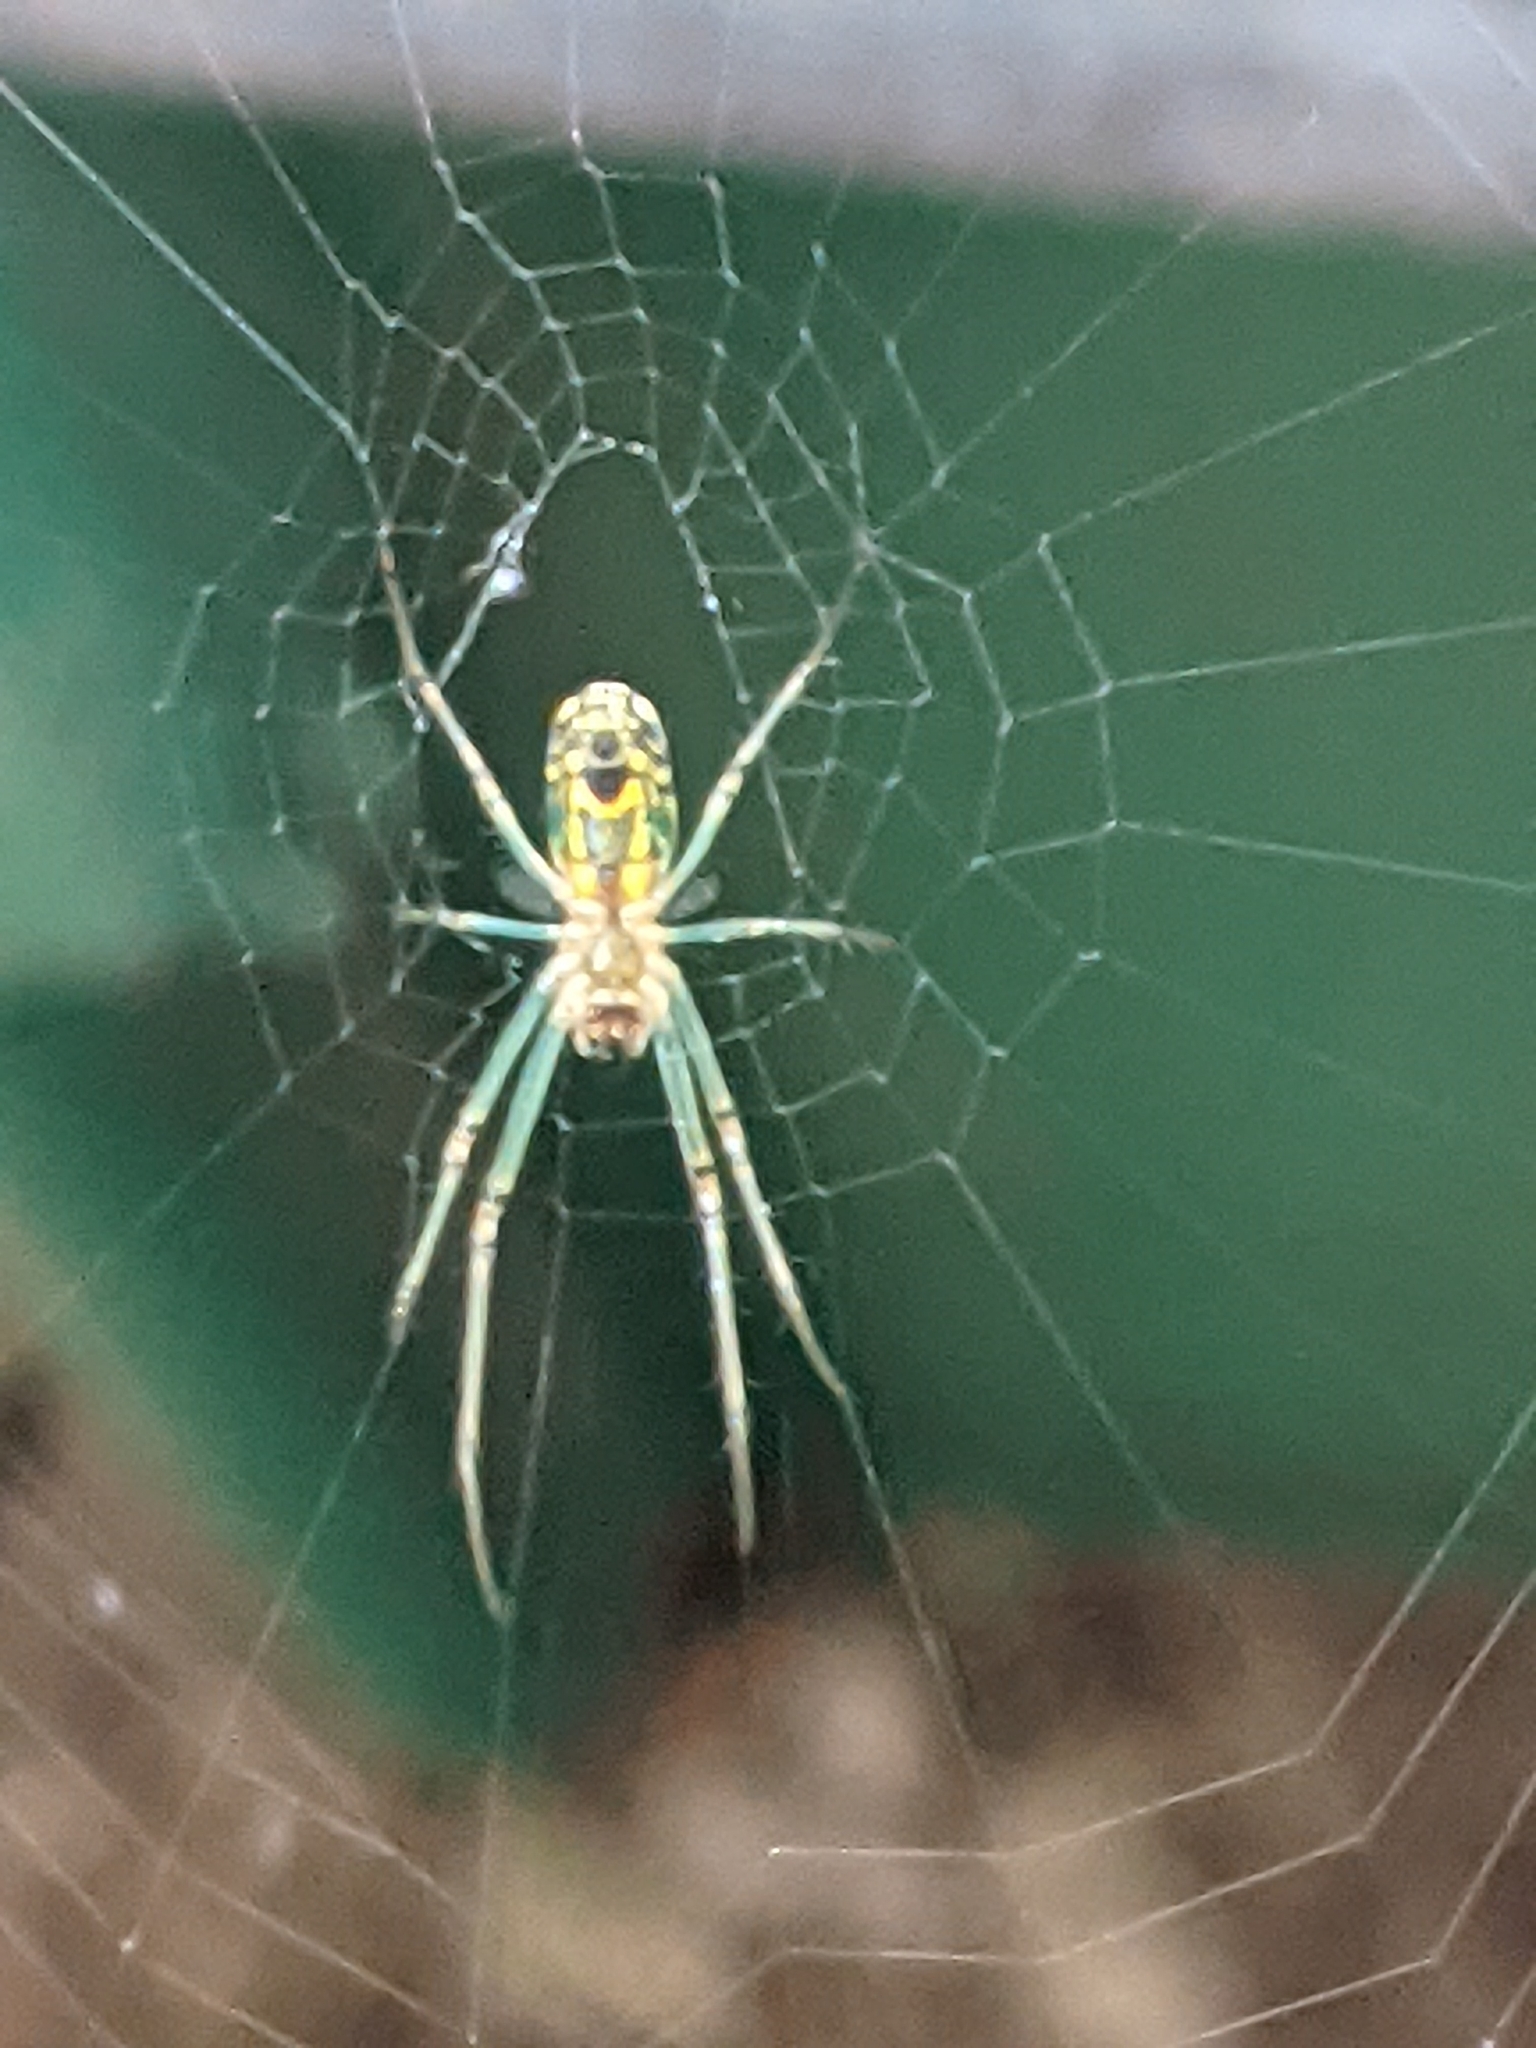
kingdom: Animalia
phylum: Arthropoda
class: Arachnida
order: Araneae
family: Tetragnathidae
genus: Leucauge
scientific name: Leucauge venusta
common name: Longjawed orb weavers
